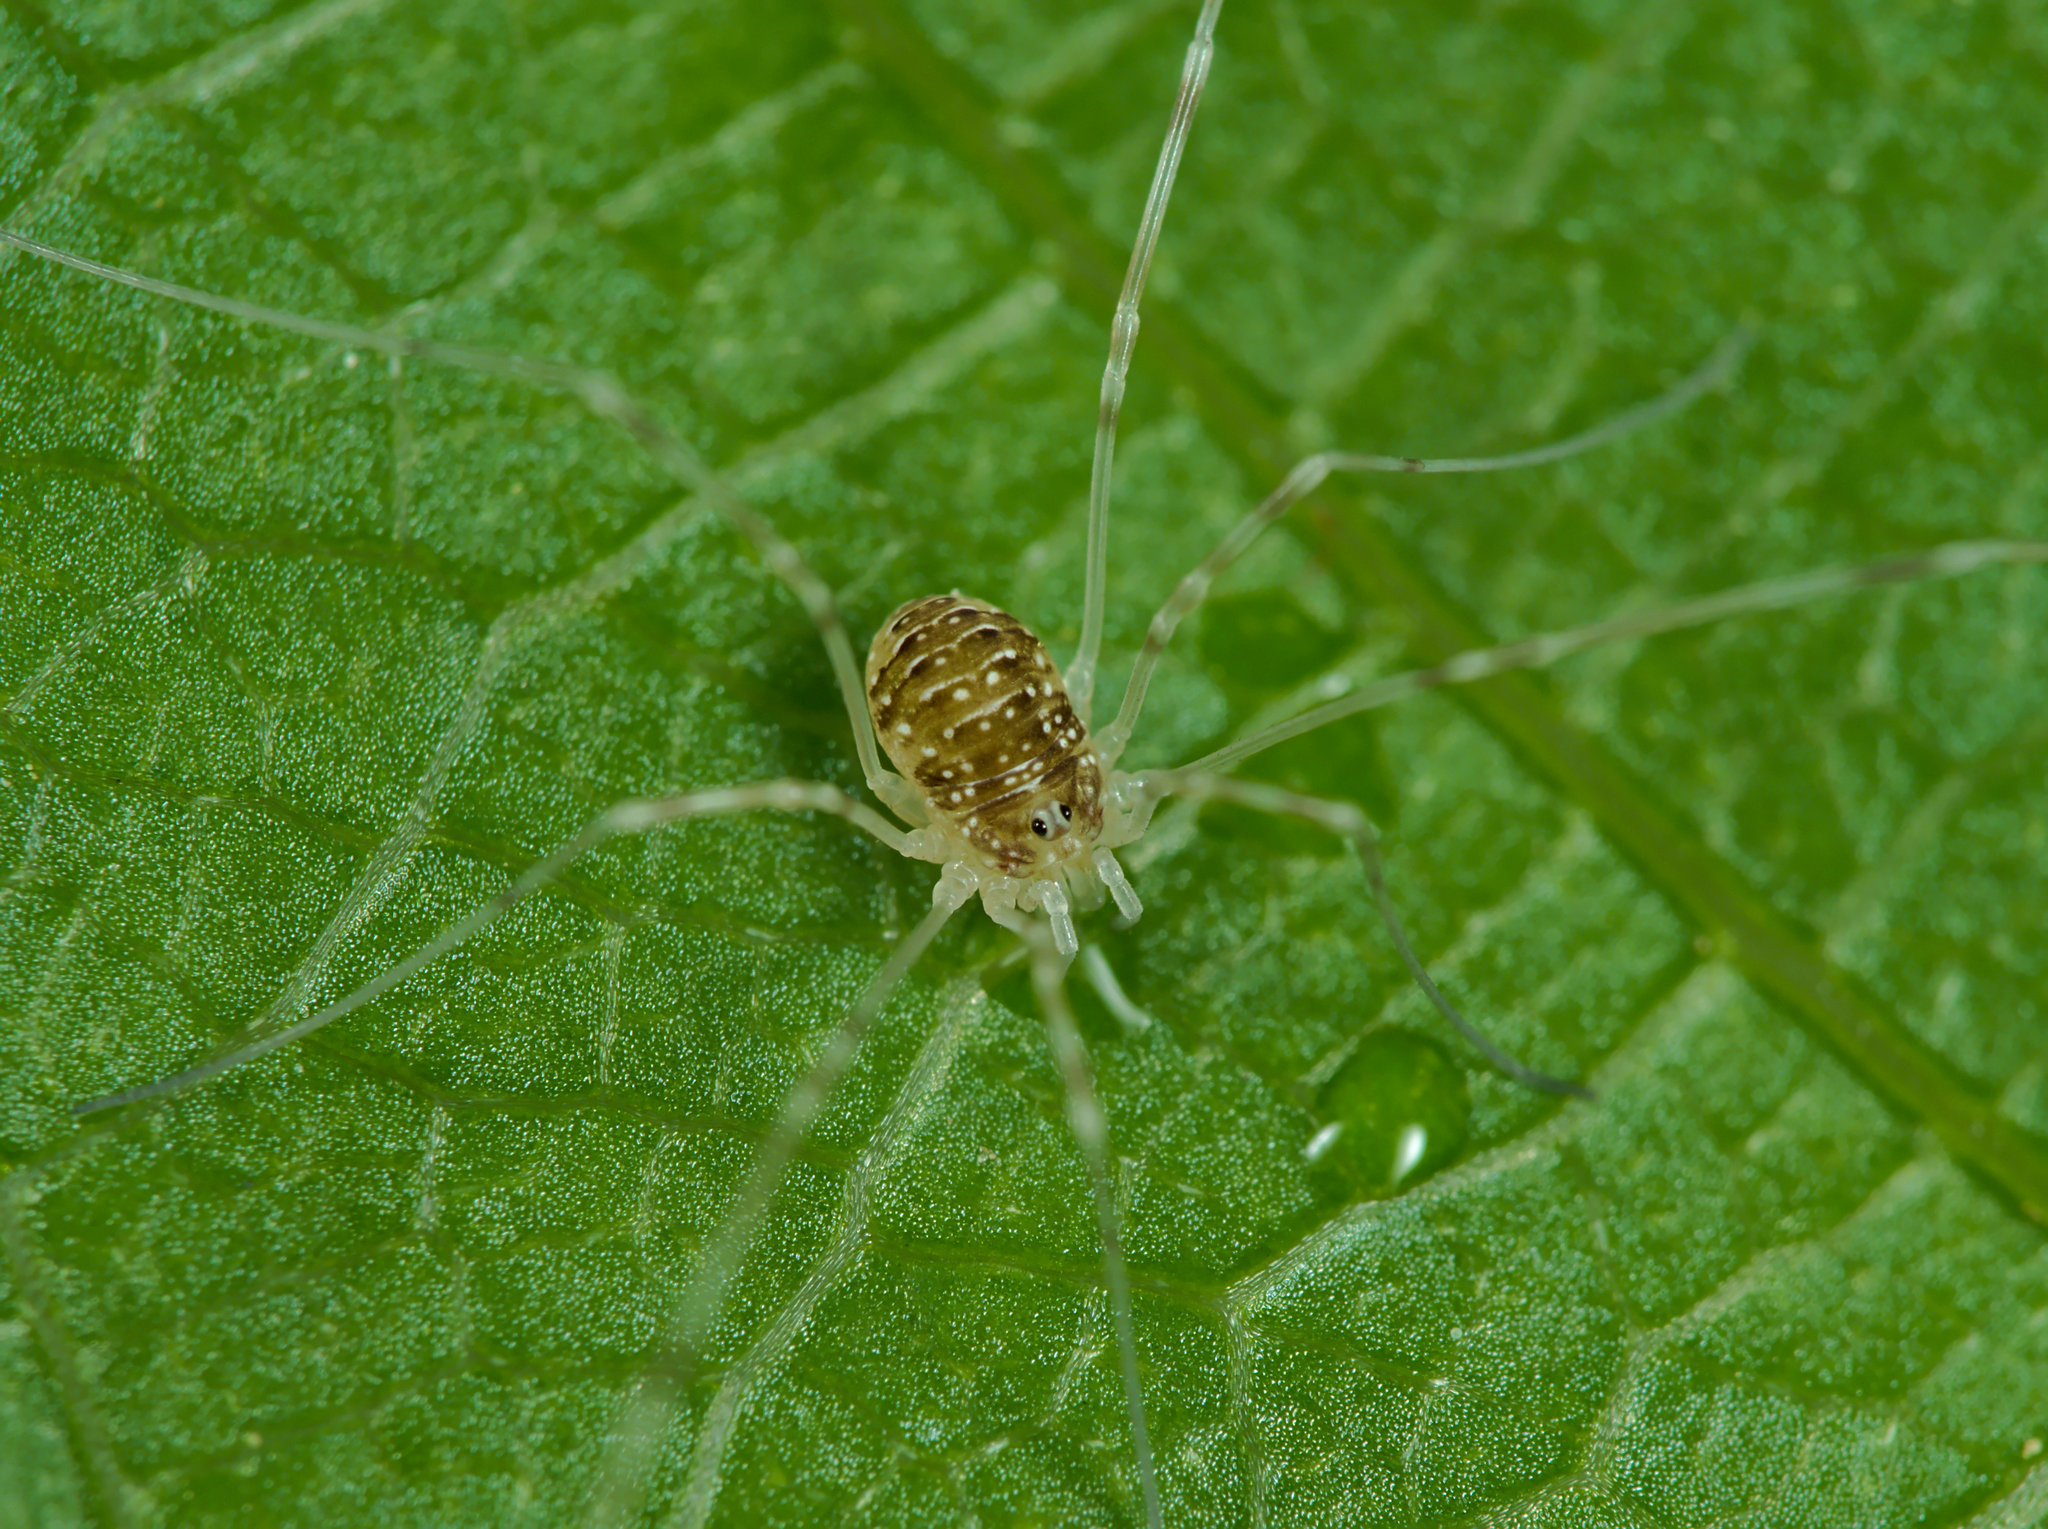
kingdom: Animalia
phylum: Arthropoda
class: Arachnida
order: Opiliones
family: Phalangiidae
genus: Opilio
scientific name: Opilio canestrinii
